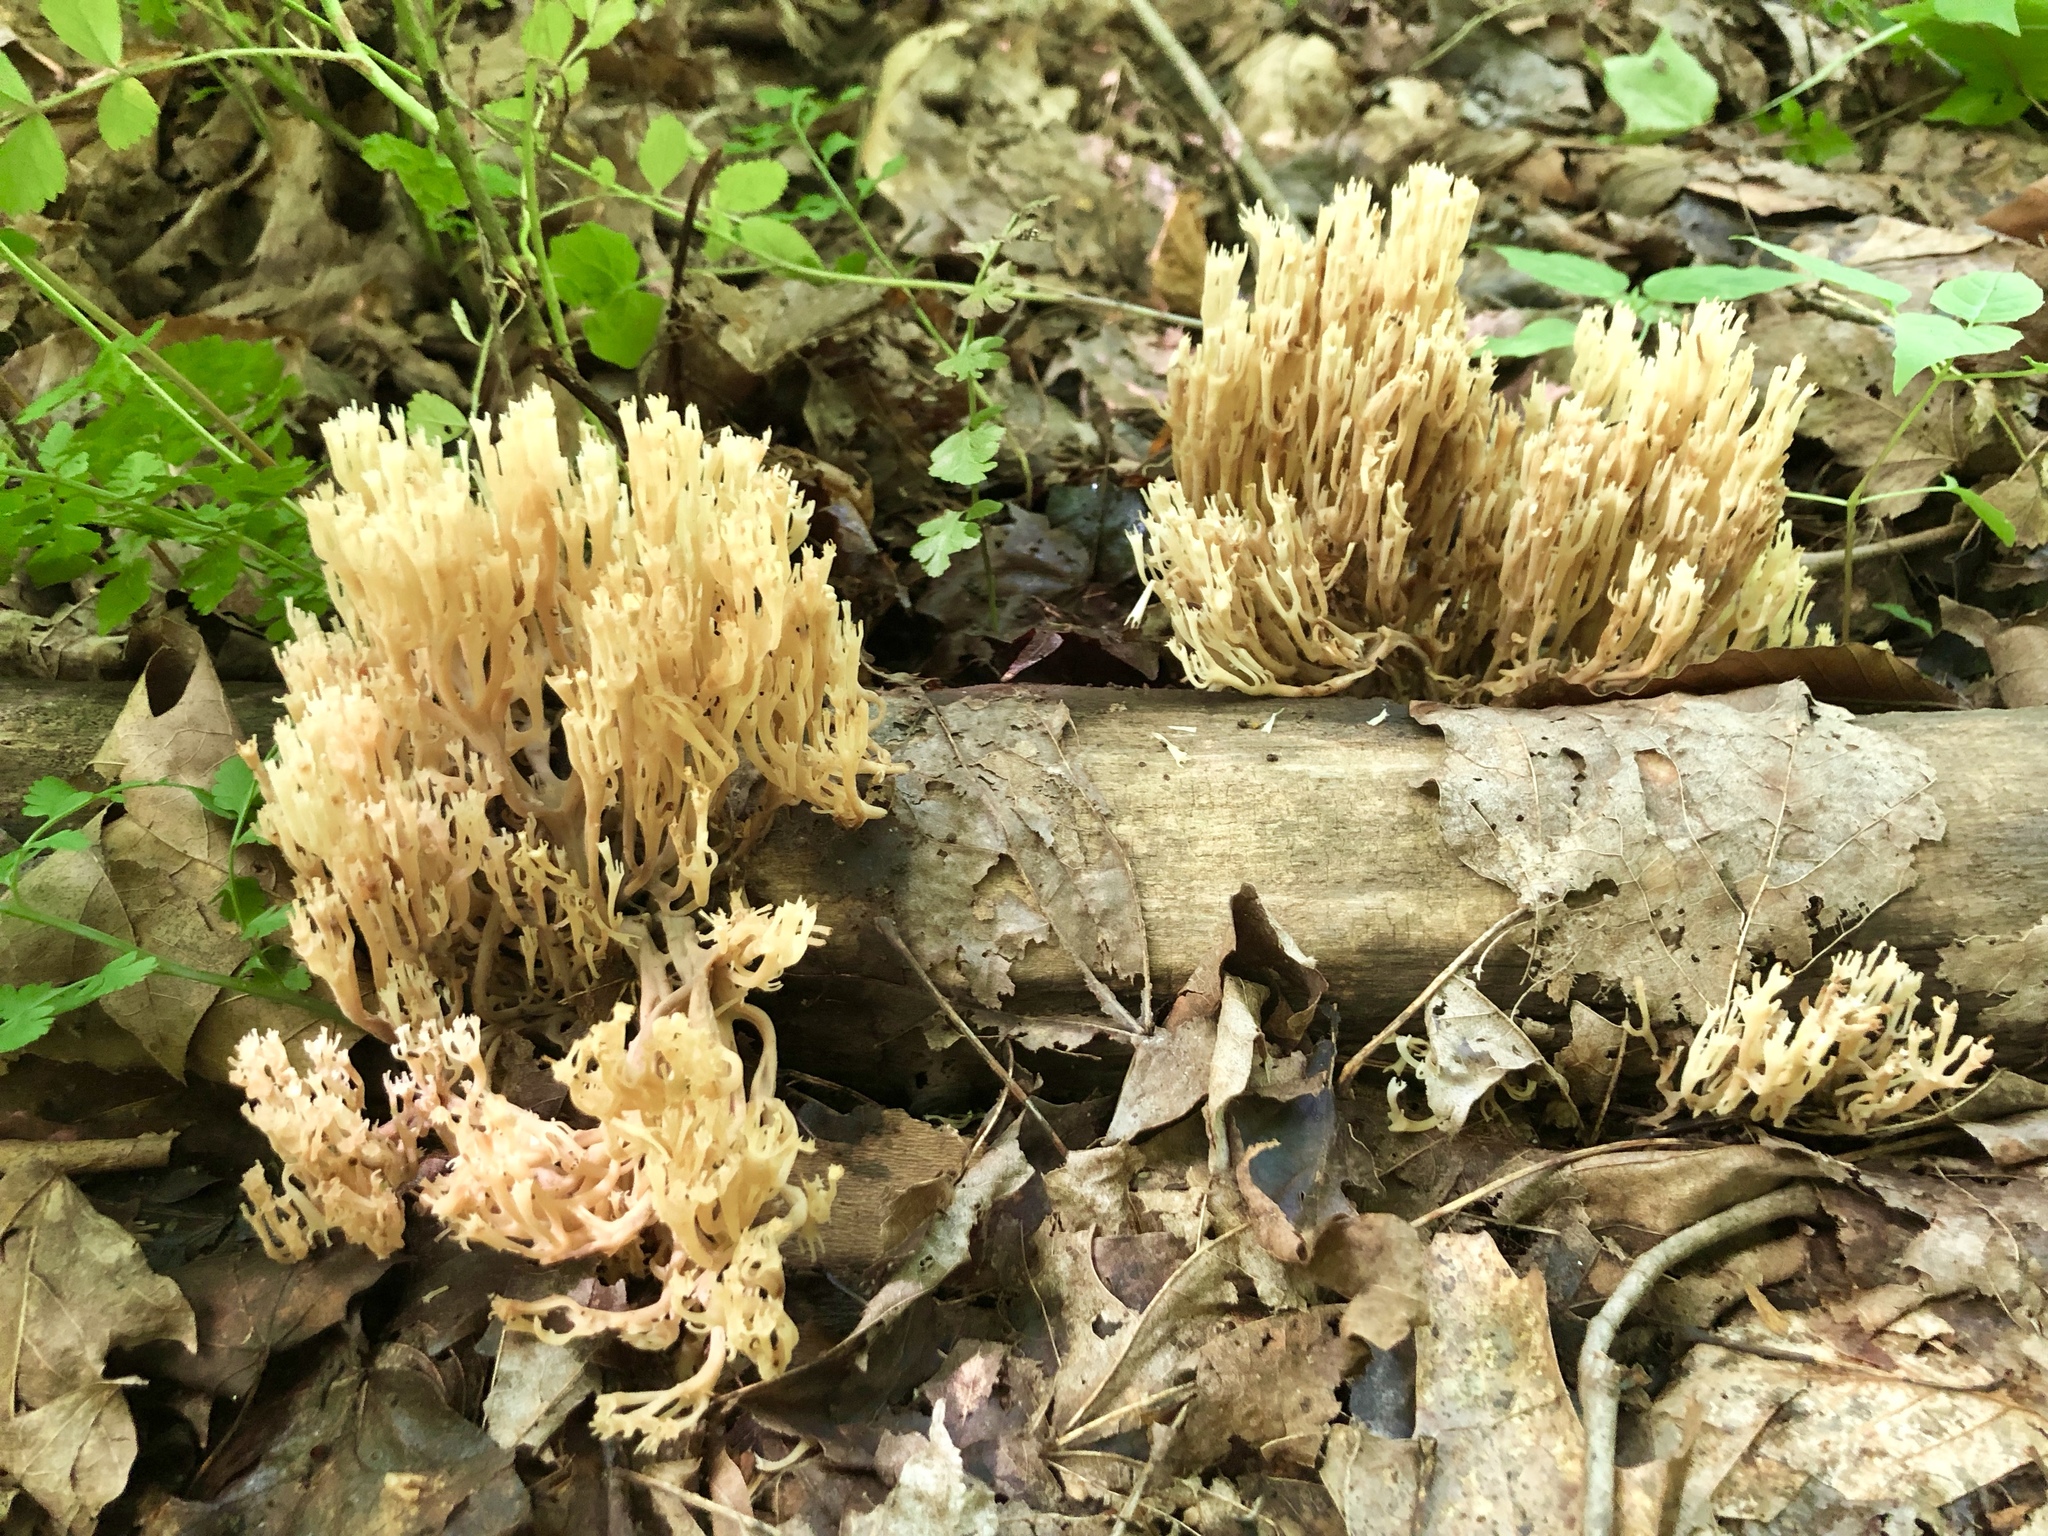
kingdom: Fungi
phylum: Basidiomycota
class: Agaricomycetes
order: Russulales
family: Auriscalpiaceae
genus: Artomyces
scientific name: Artomyces pyxidatus
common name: Crown-tipped coral fungus
